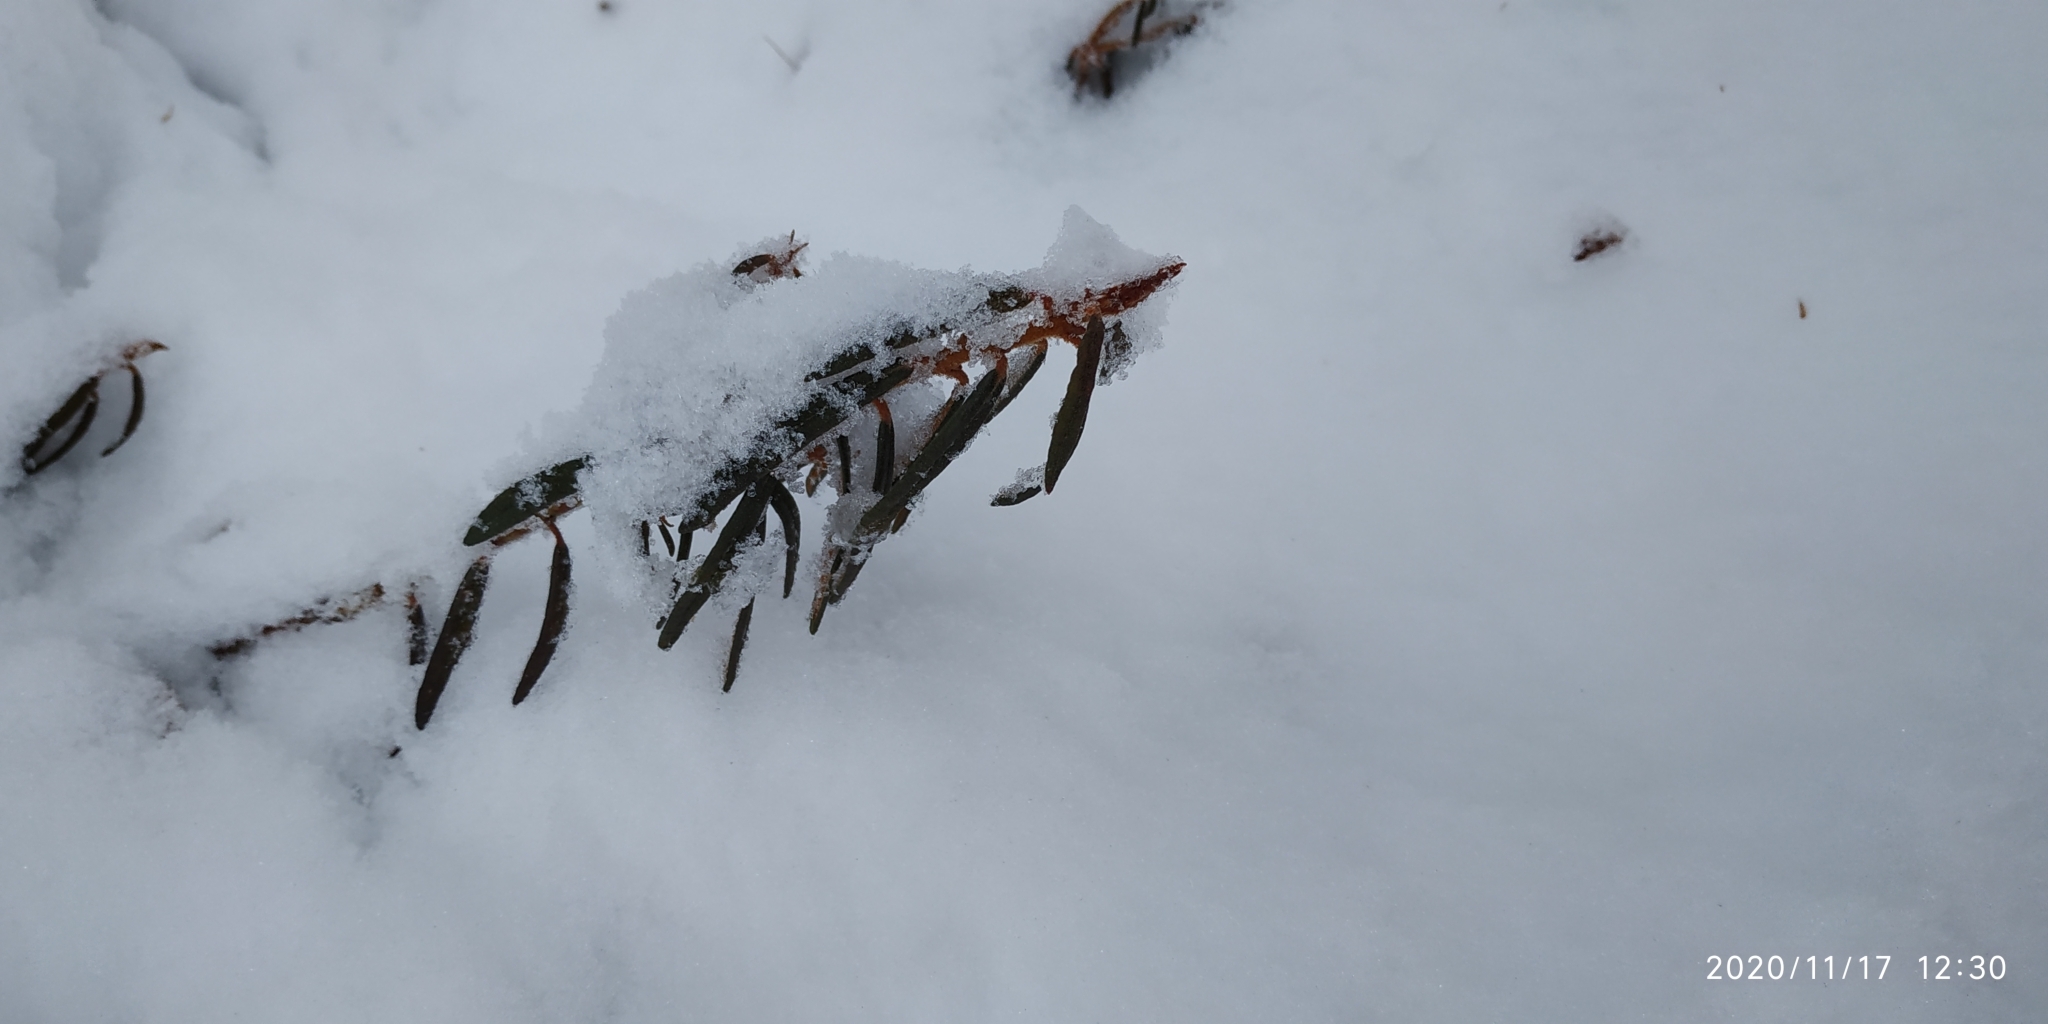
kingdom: Plantae
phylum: Tracheophyta
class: Magnoliopsida
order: Ericales
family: Ericaceae
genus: Rhododendron
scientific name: Rhododendron tomentosum
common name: Marsh labrador tea
